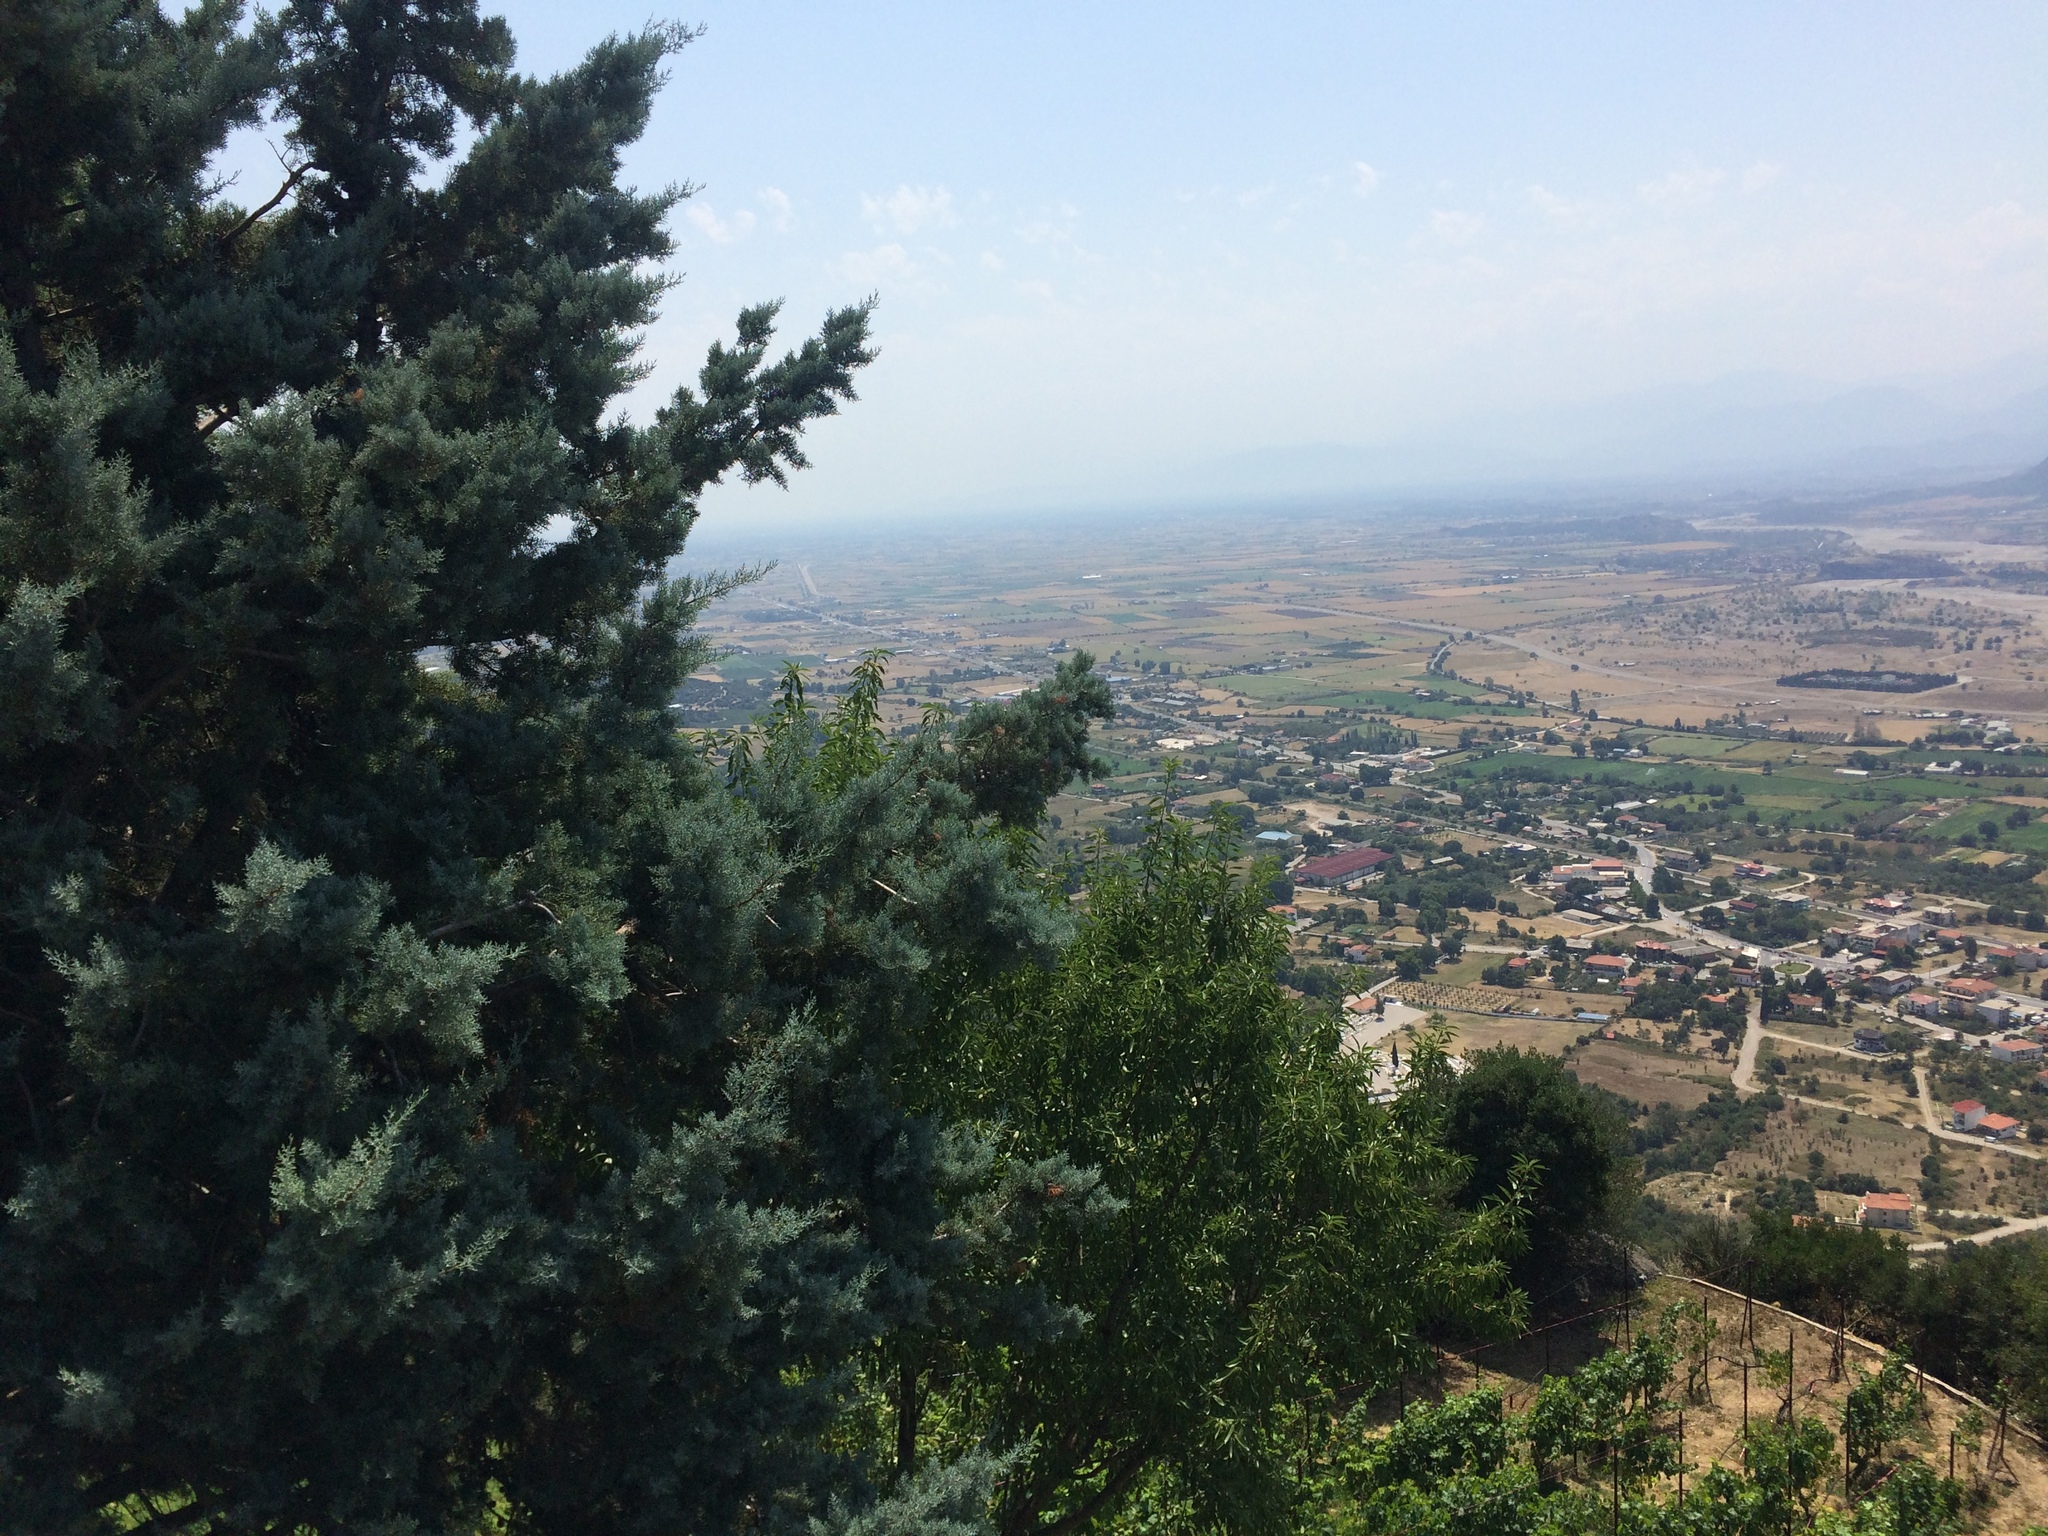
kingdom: Plantae
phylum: Tracheophyta
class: Pinopsida
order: Pinales
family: Cupressaceae
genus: Cupressus
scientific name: Cupressus sempervirens
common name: Italian cypress
